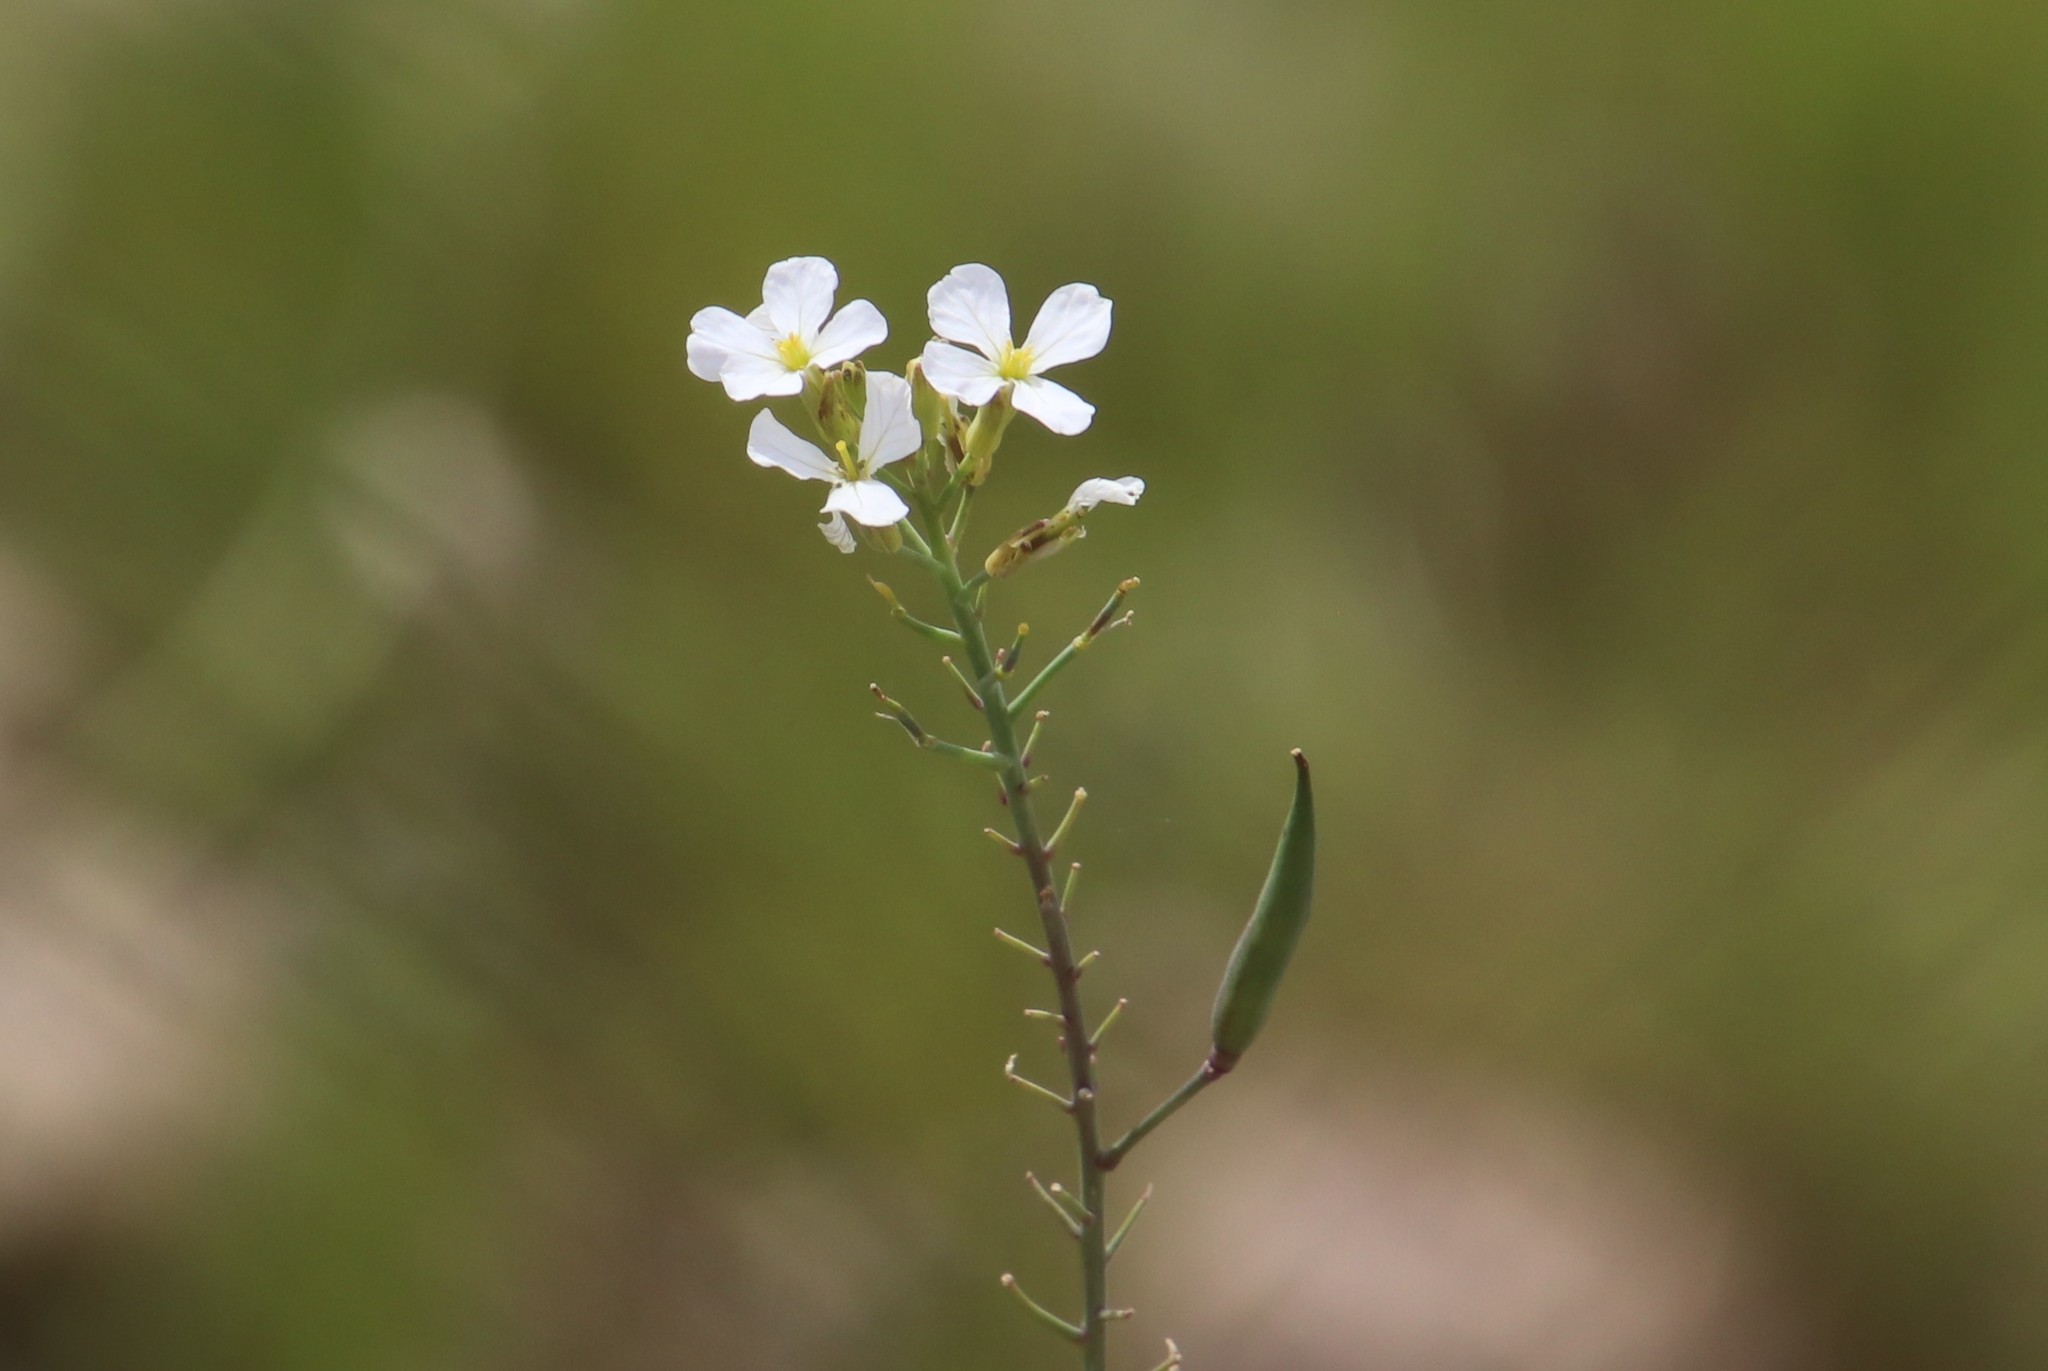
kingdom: Plantae
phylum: Tracheophyta
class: Magnoliopsida
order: Brassicales
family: Brassicaceae
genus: Raphanus
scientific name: Raphanus sativus
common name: Cultivated radish
